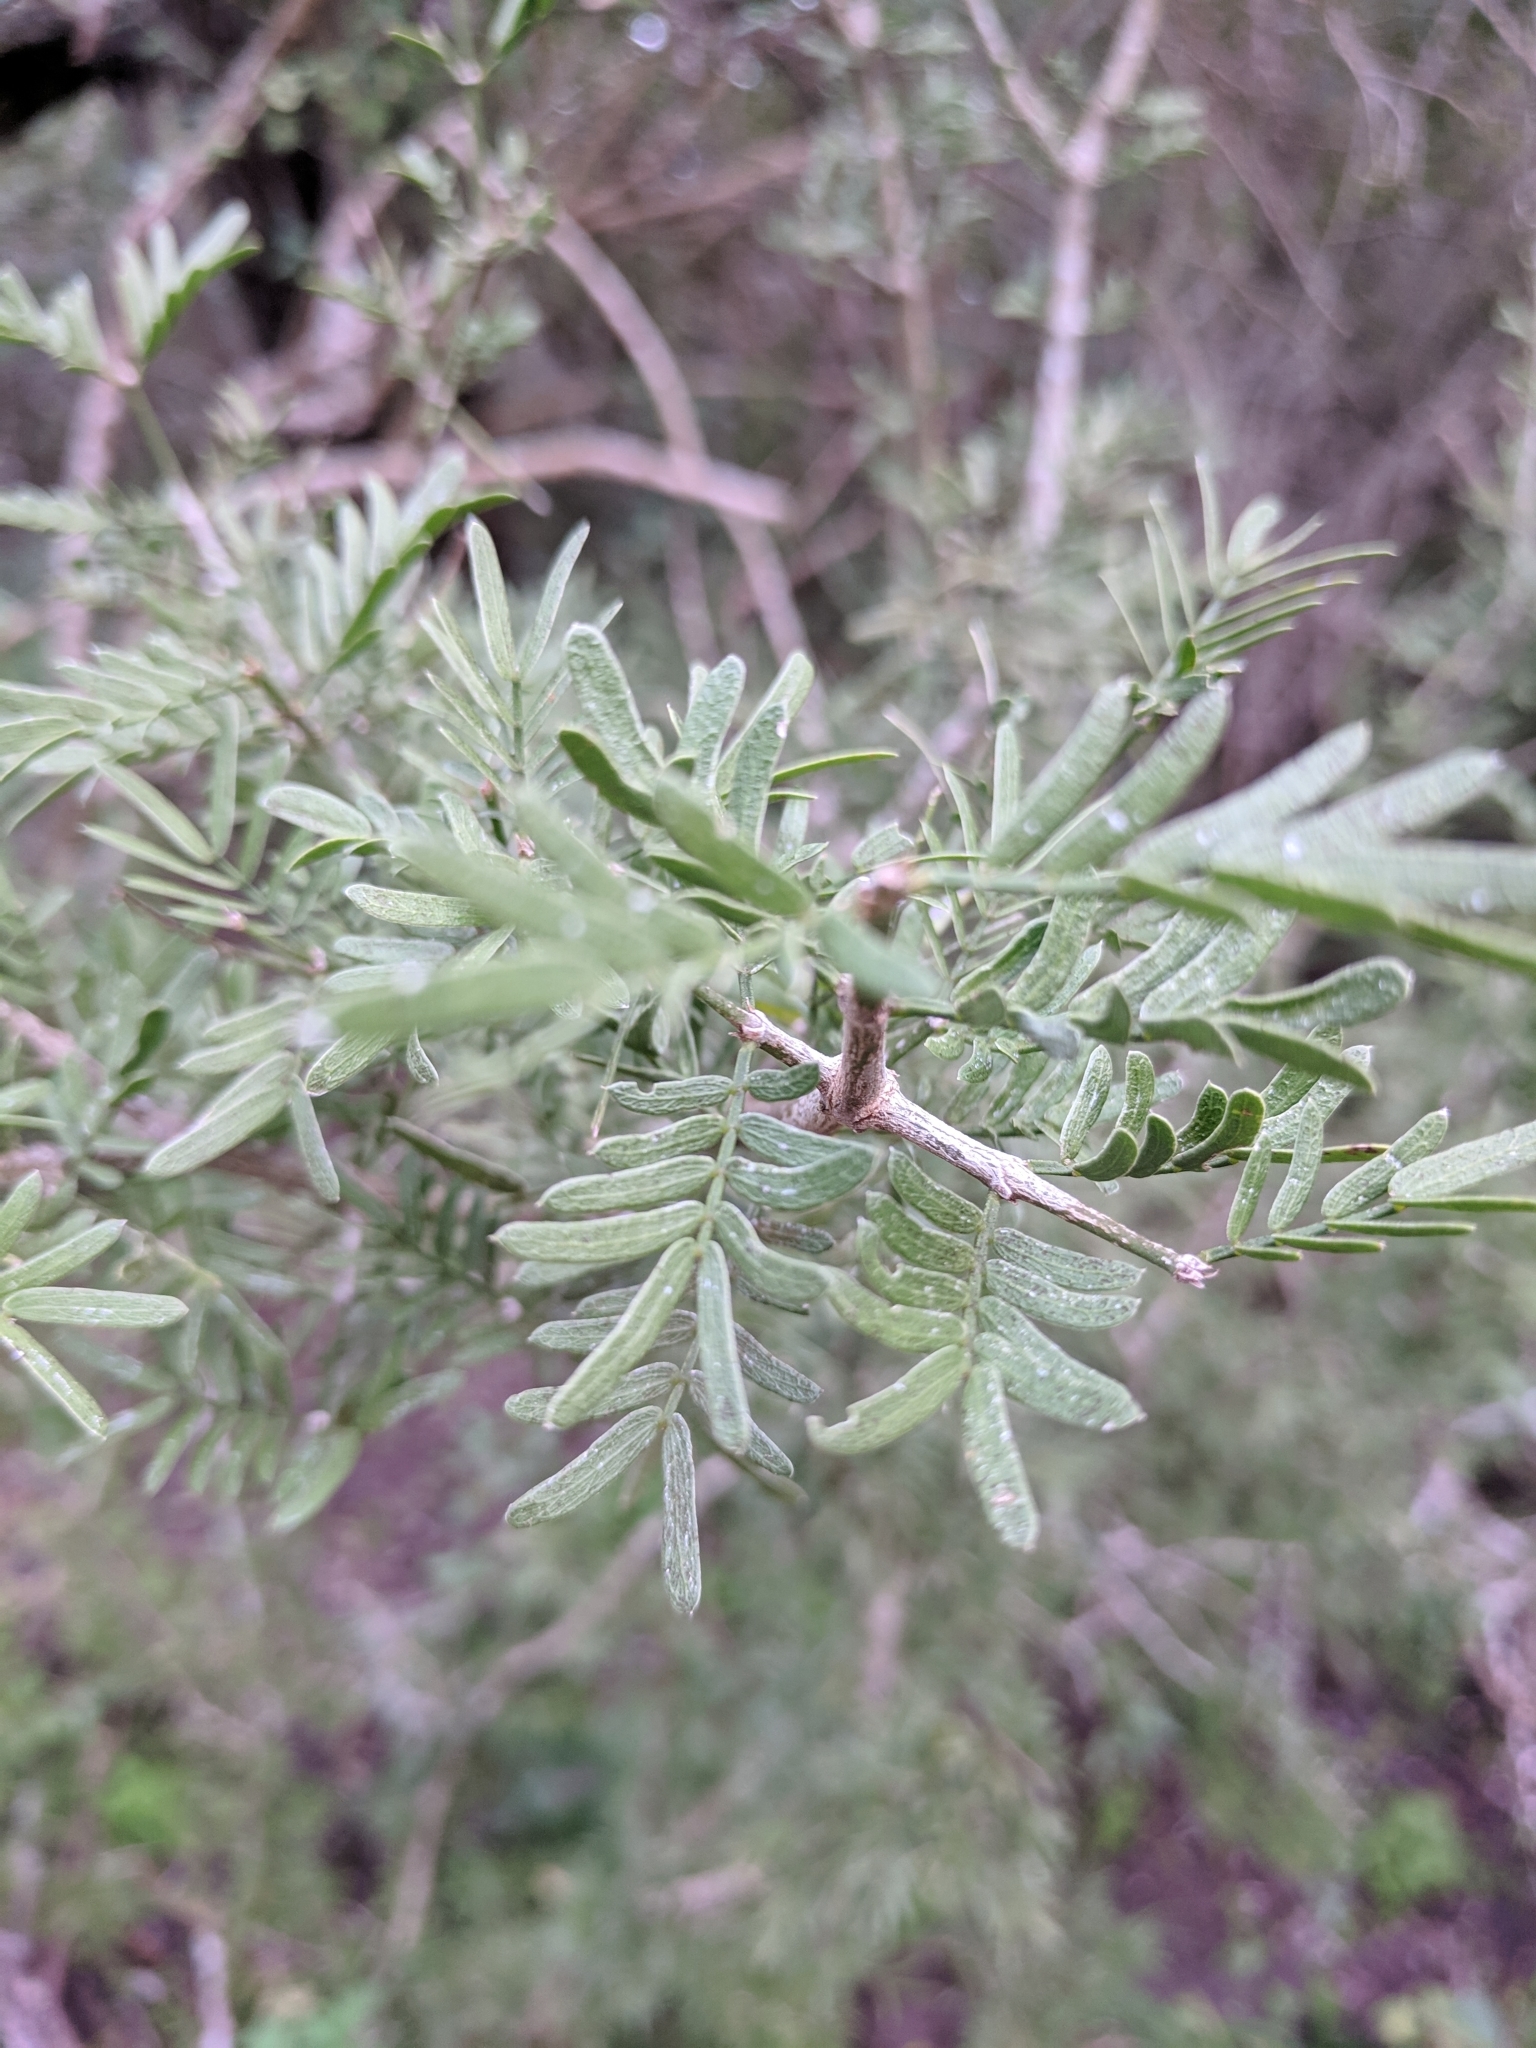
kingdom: Plantae
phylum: Tracheophyta
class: Magnoliopsida
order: Zygophyllales
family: Zygophyllaceae
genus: Porlieria
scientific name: Porlieria angustifolia
